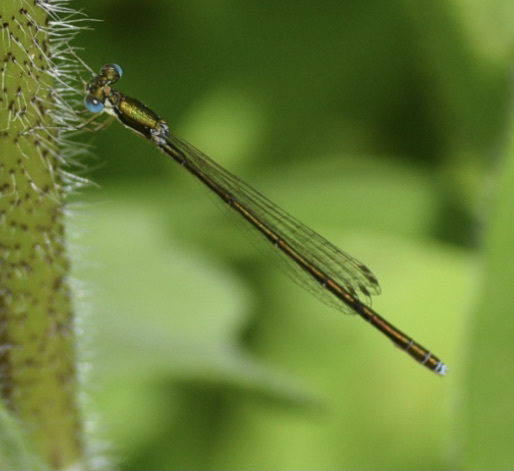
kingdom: Animalia
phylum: Arthropoda
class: Insecta
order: Odonata
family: Coenagrionidae
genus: Nehalennia
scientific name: Nehalennia irene
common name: Sedge sprite
